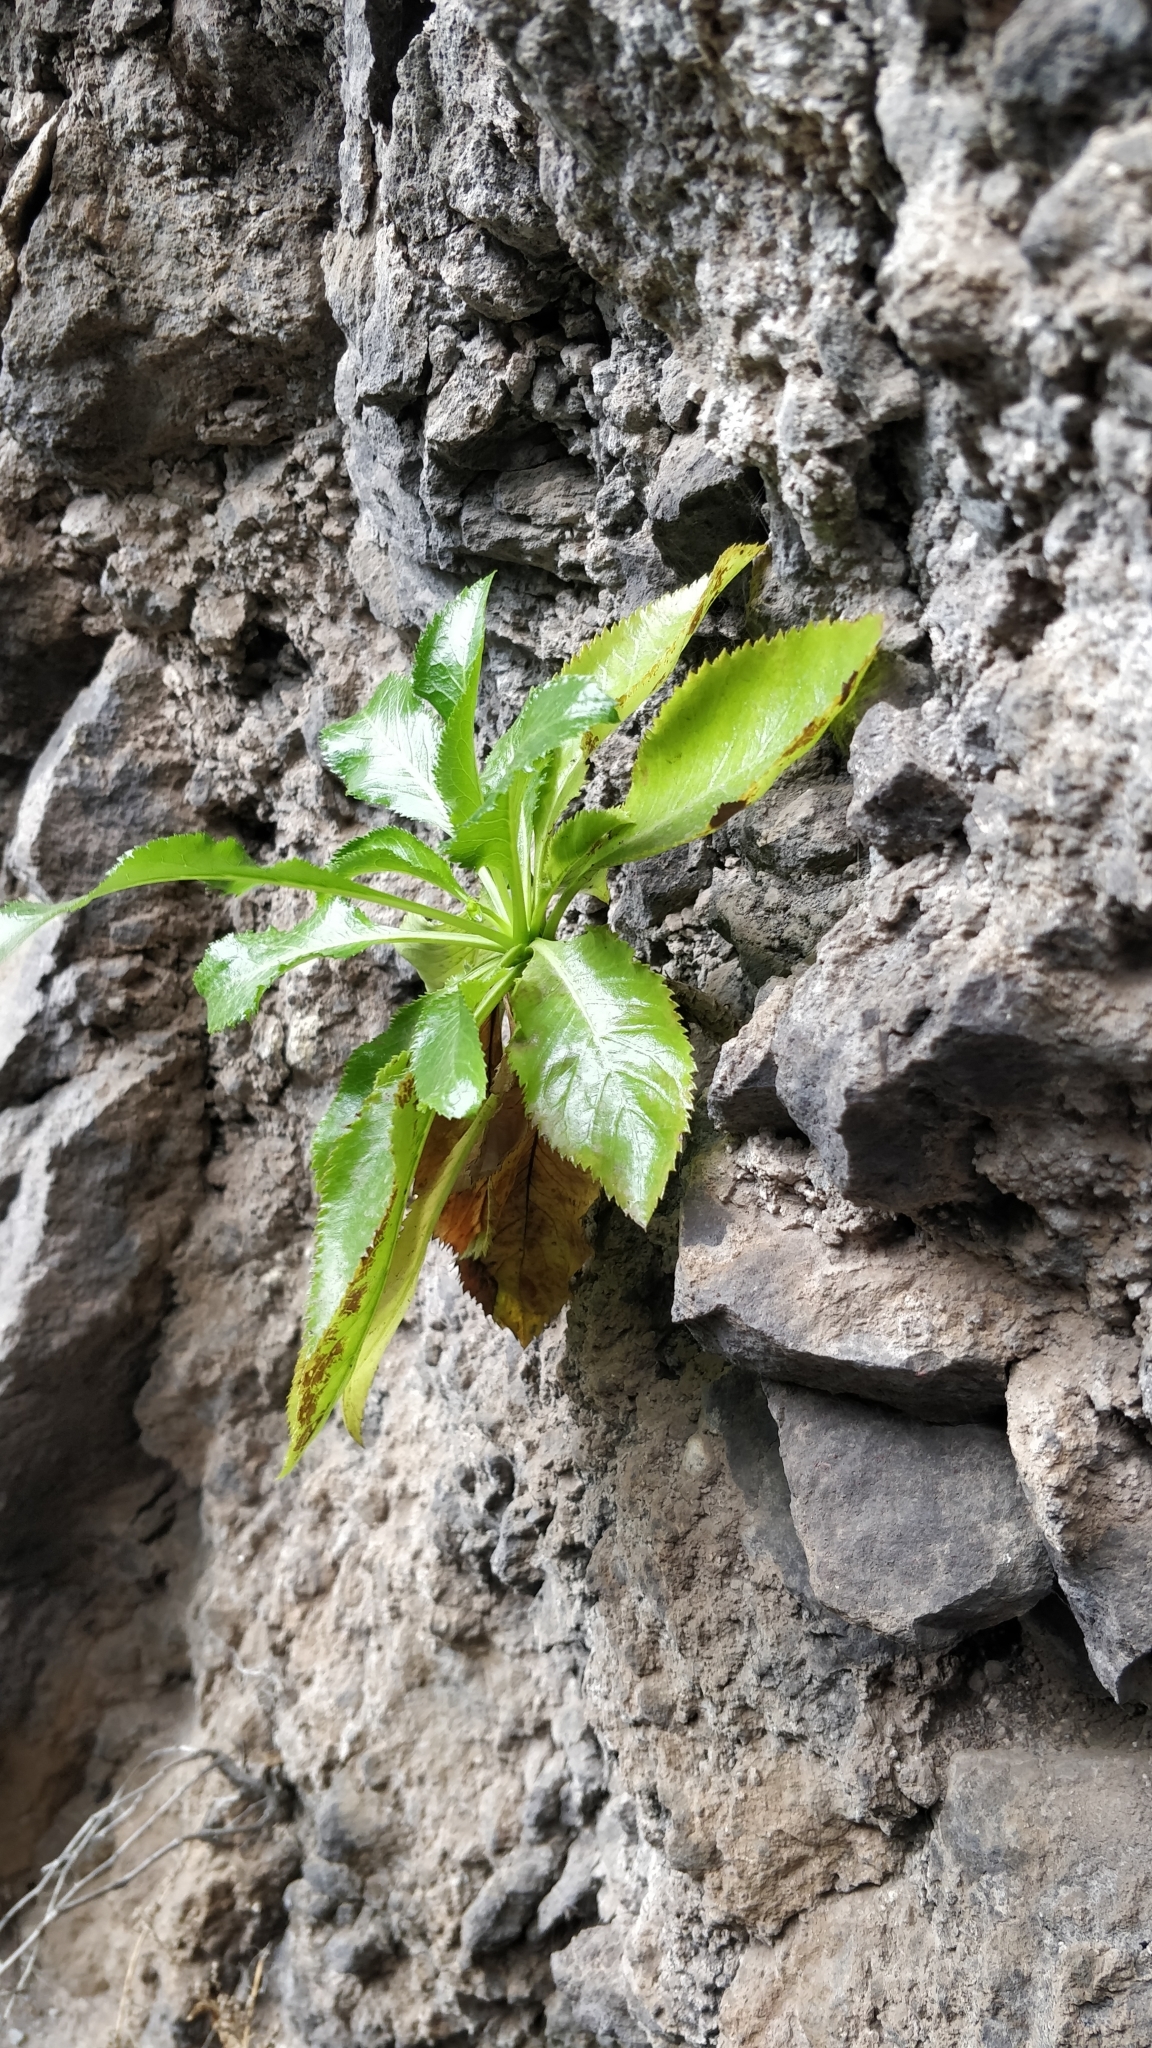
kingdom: Plantae
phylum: Tracheophyta
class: Magnoliopsida
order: Asterales
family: Campanulaceae
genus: Musschia
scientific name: Musschia aurea
